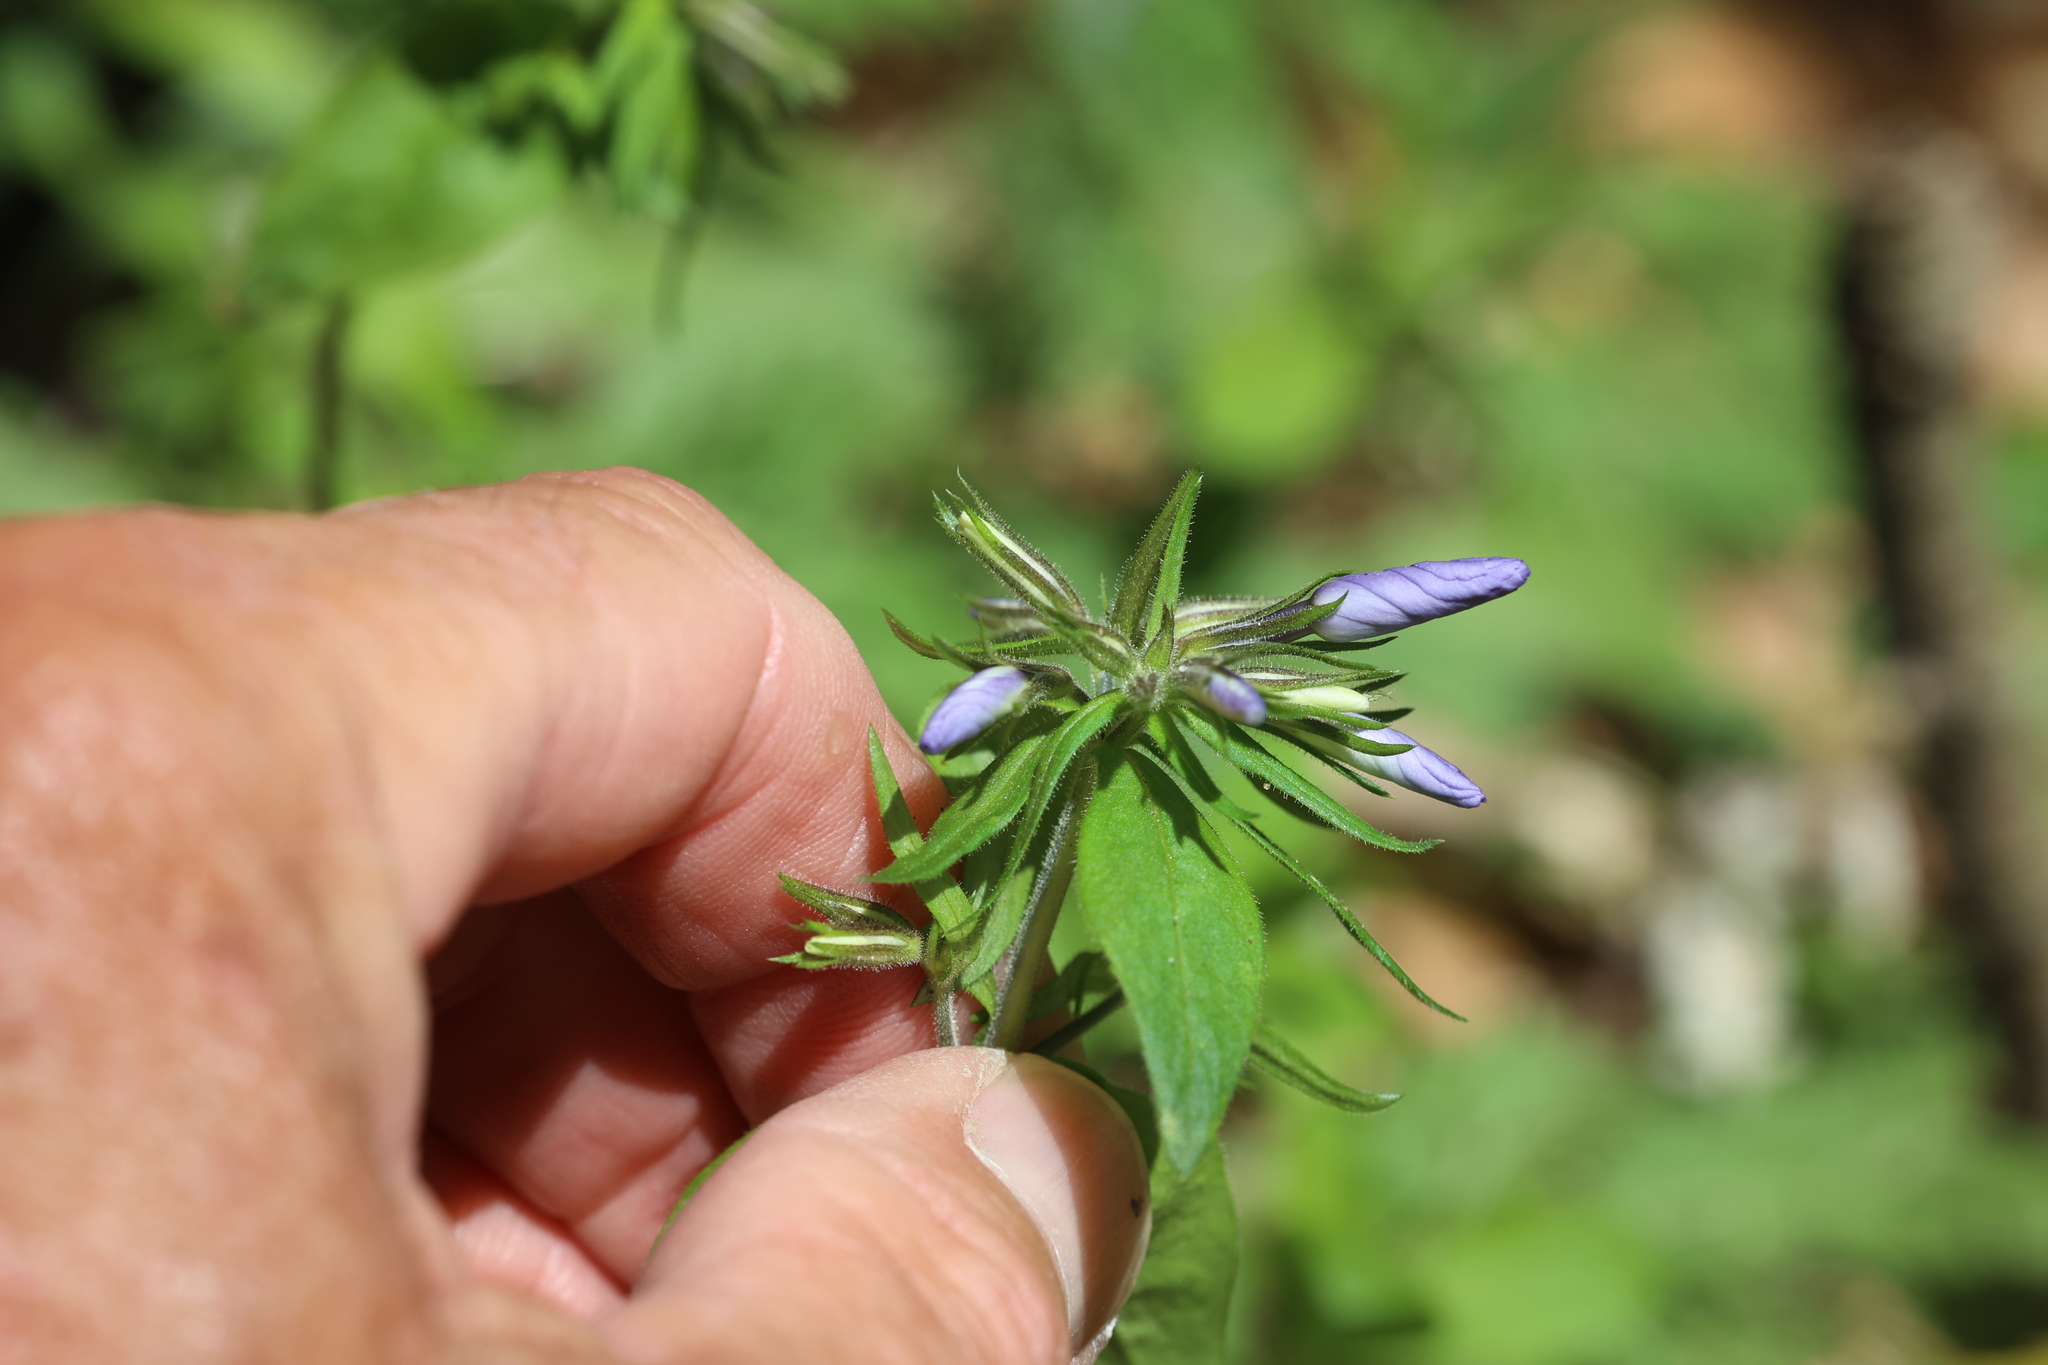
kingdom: Plantae
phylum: Tracheophyta
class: Magnoliopsida
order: Ericales
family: Polemoniaceae
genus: Phlox
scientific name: Phlox divaricata
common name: Blue phlox
